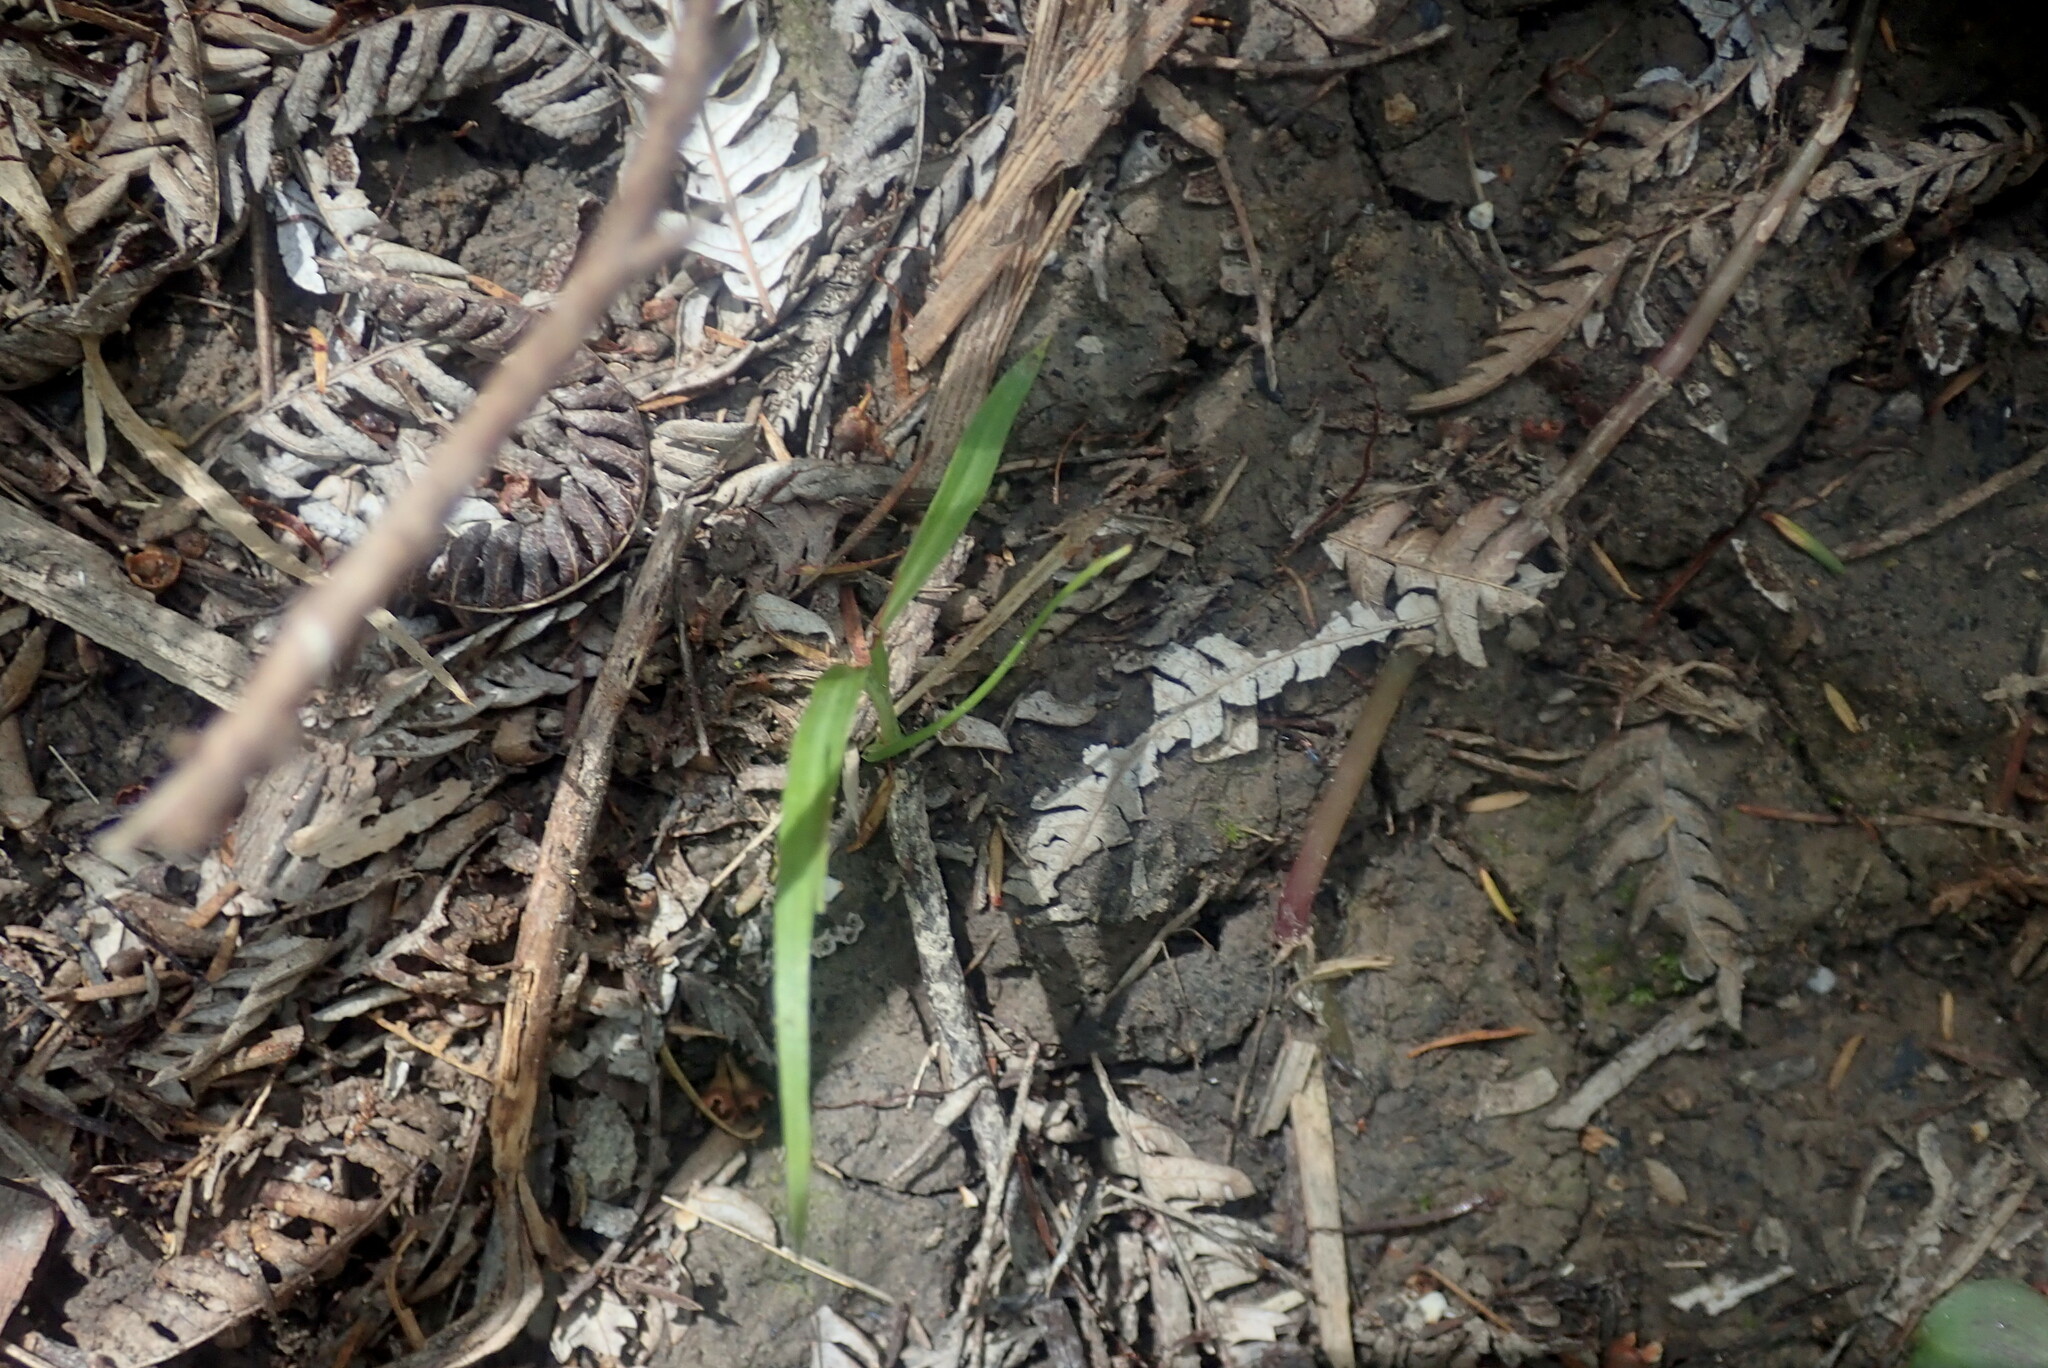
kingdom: Plantae
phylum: Tracheophyta
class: Liliopsida
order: Asparagales
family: Asparagaceae
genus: Cordyline
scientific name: Cordyline australis
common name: Cabbage-palm
